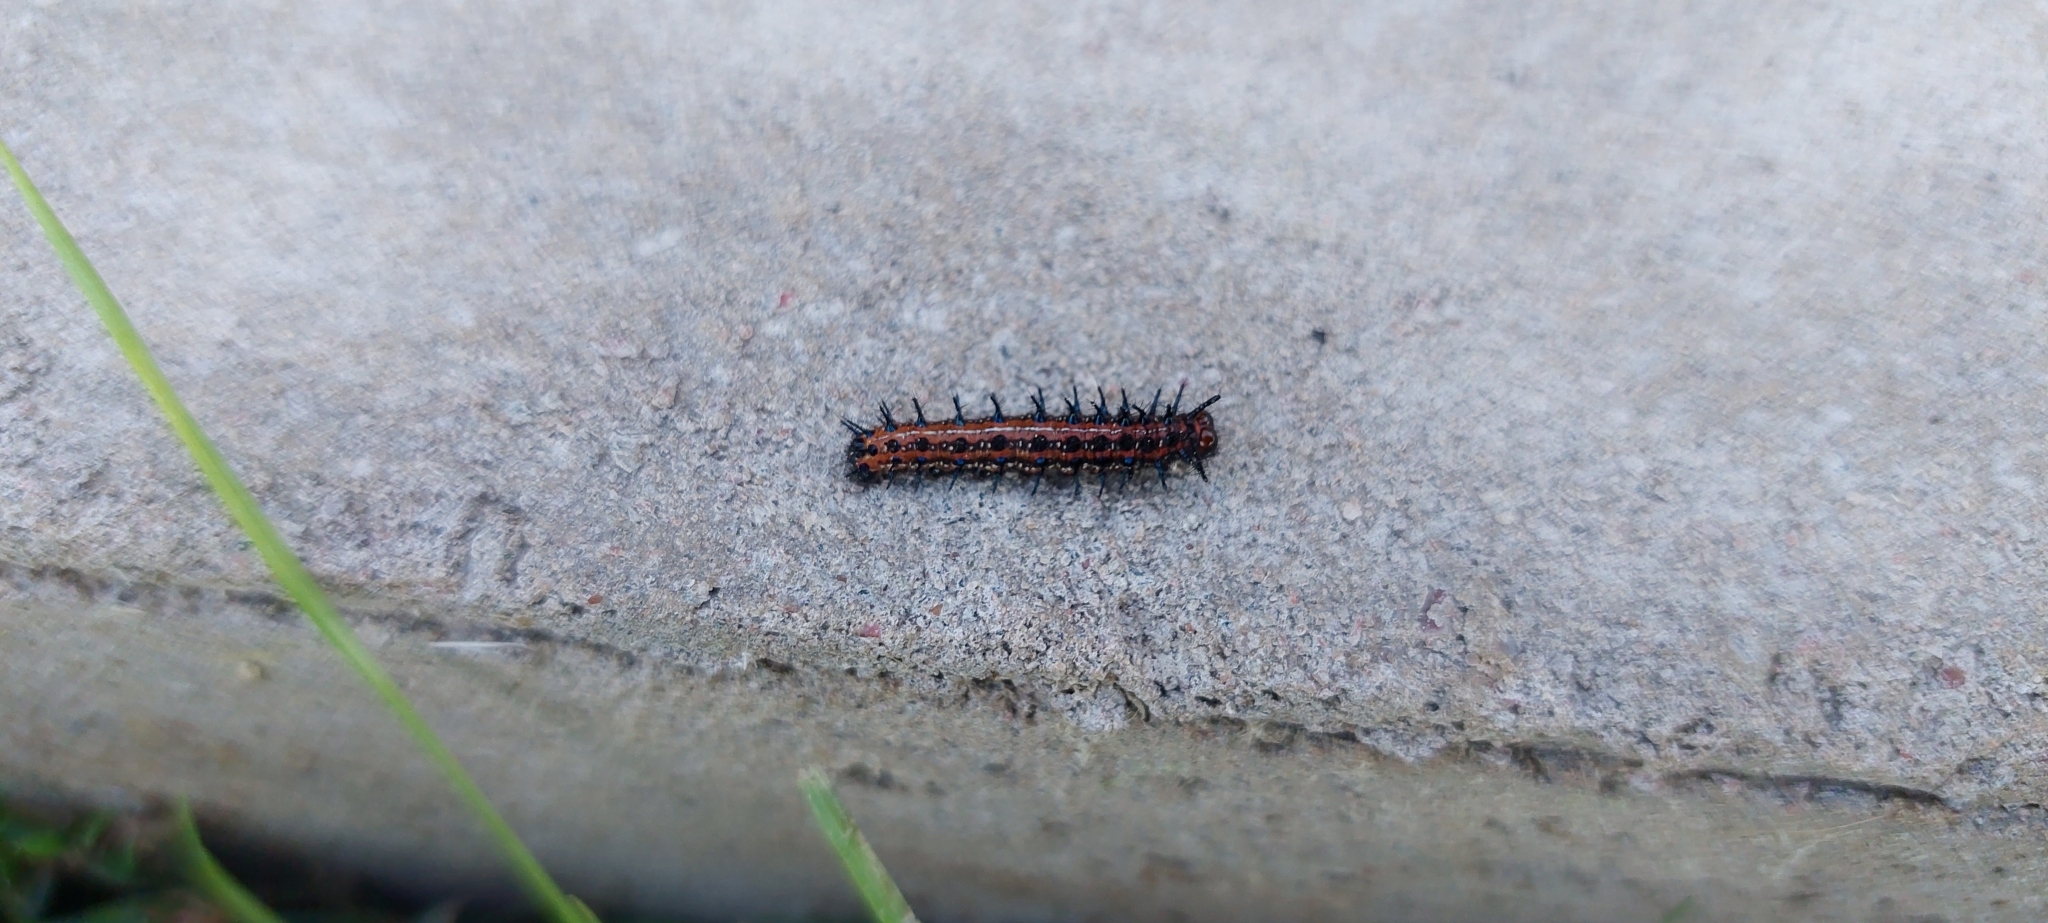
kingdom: Animalia
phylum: Arthropoda
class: Insecta
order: Lepidoptera
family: Nymphalidae
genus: Euptoieta
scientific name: Euptoieta hortensia
